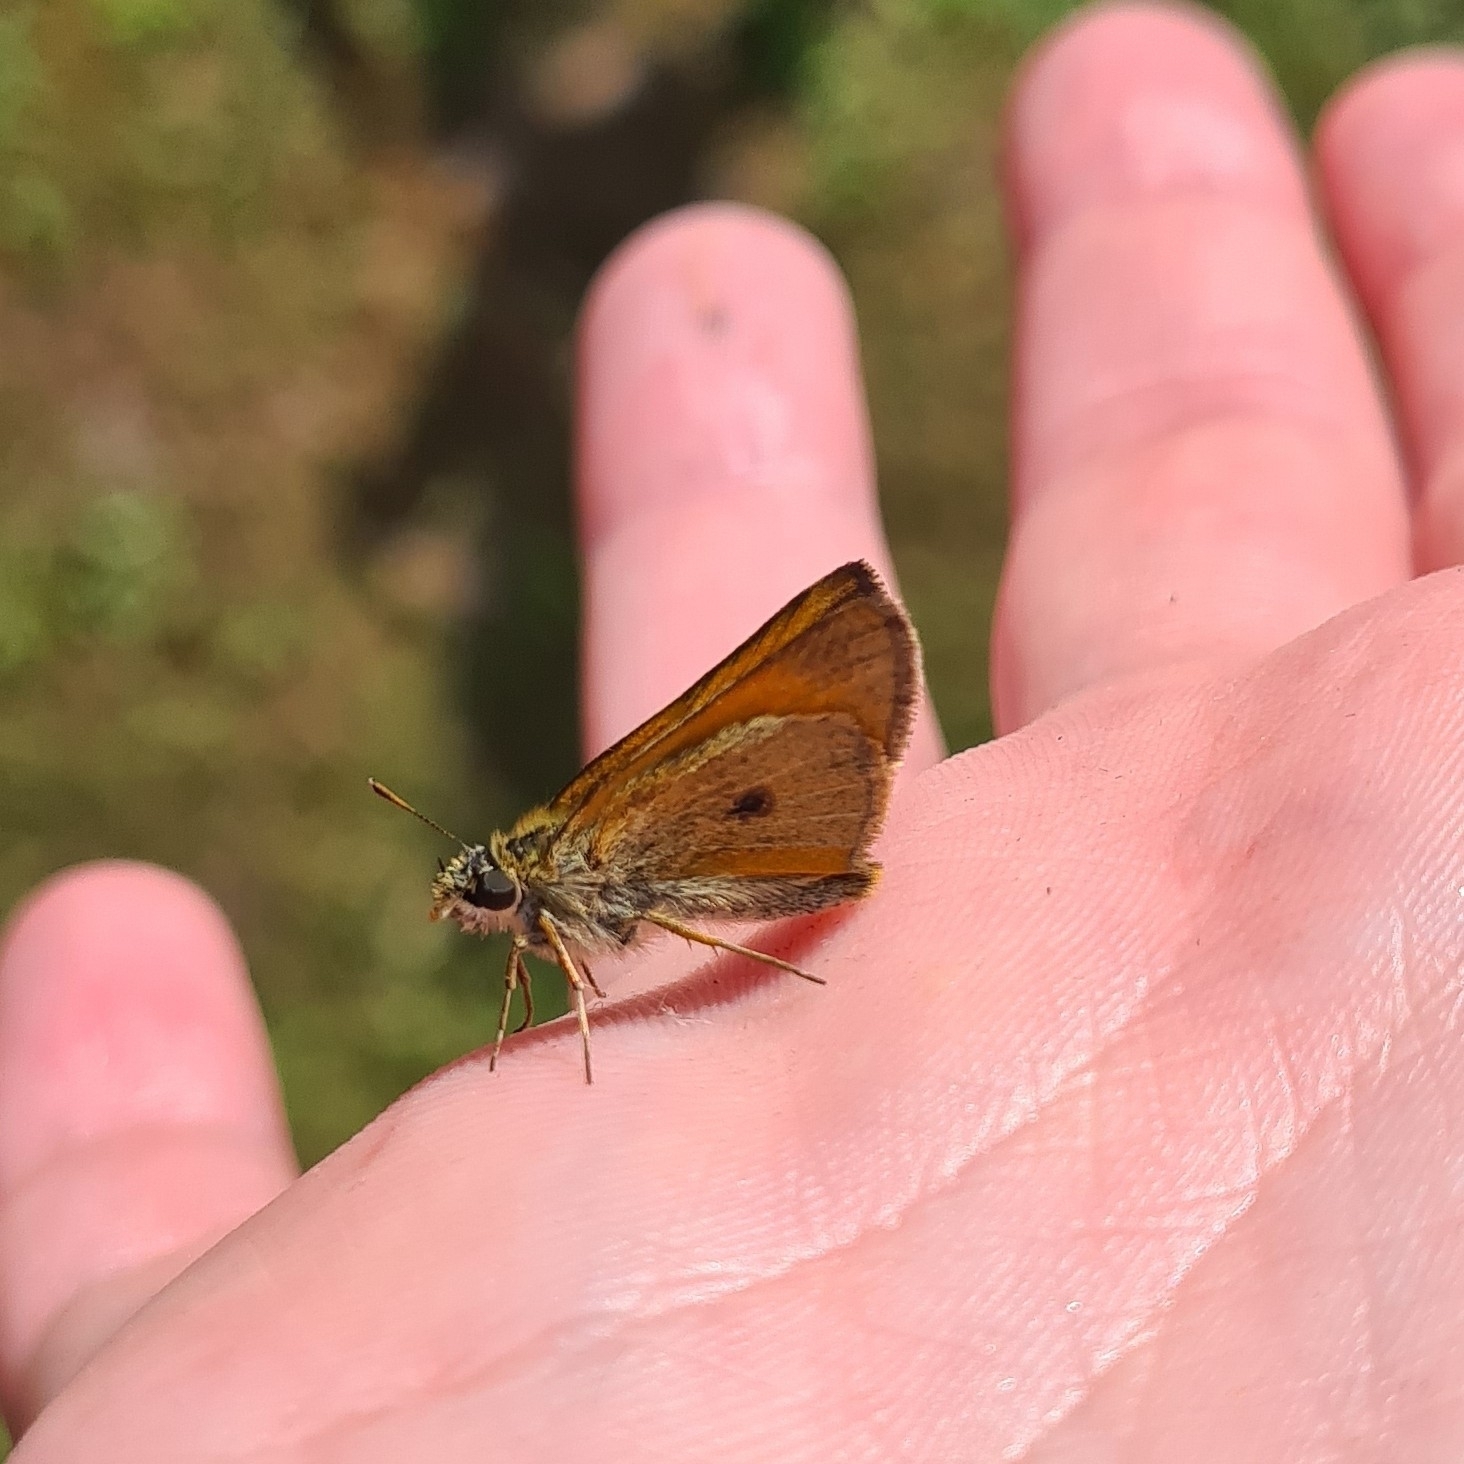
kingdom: Animalia
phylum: Arthropoda
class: Insecta
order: Lepidoptera
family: Hesperiidae
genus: Thymelicus
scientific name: Thymelicus sylvestris
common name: Small skipper
